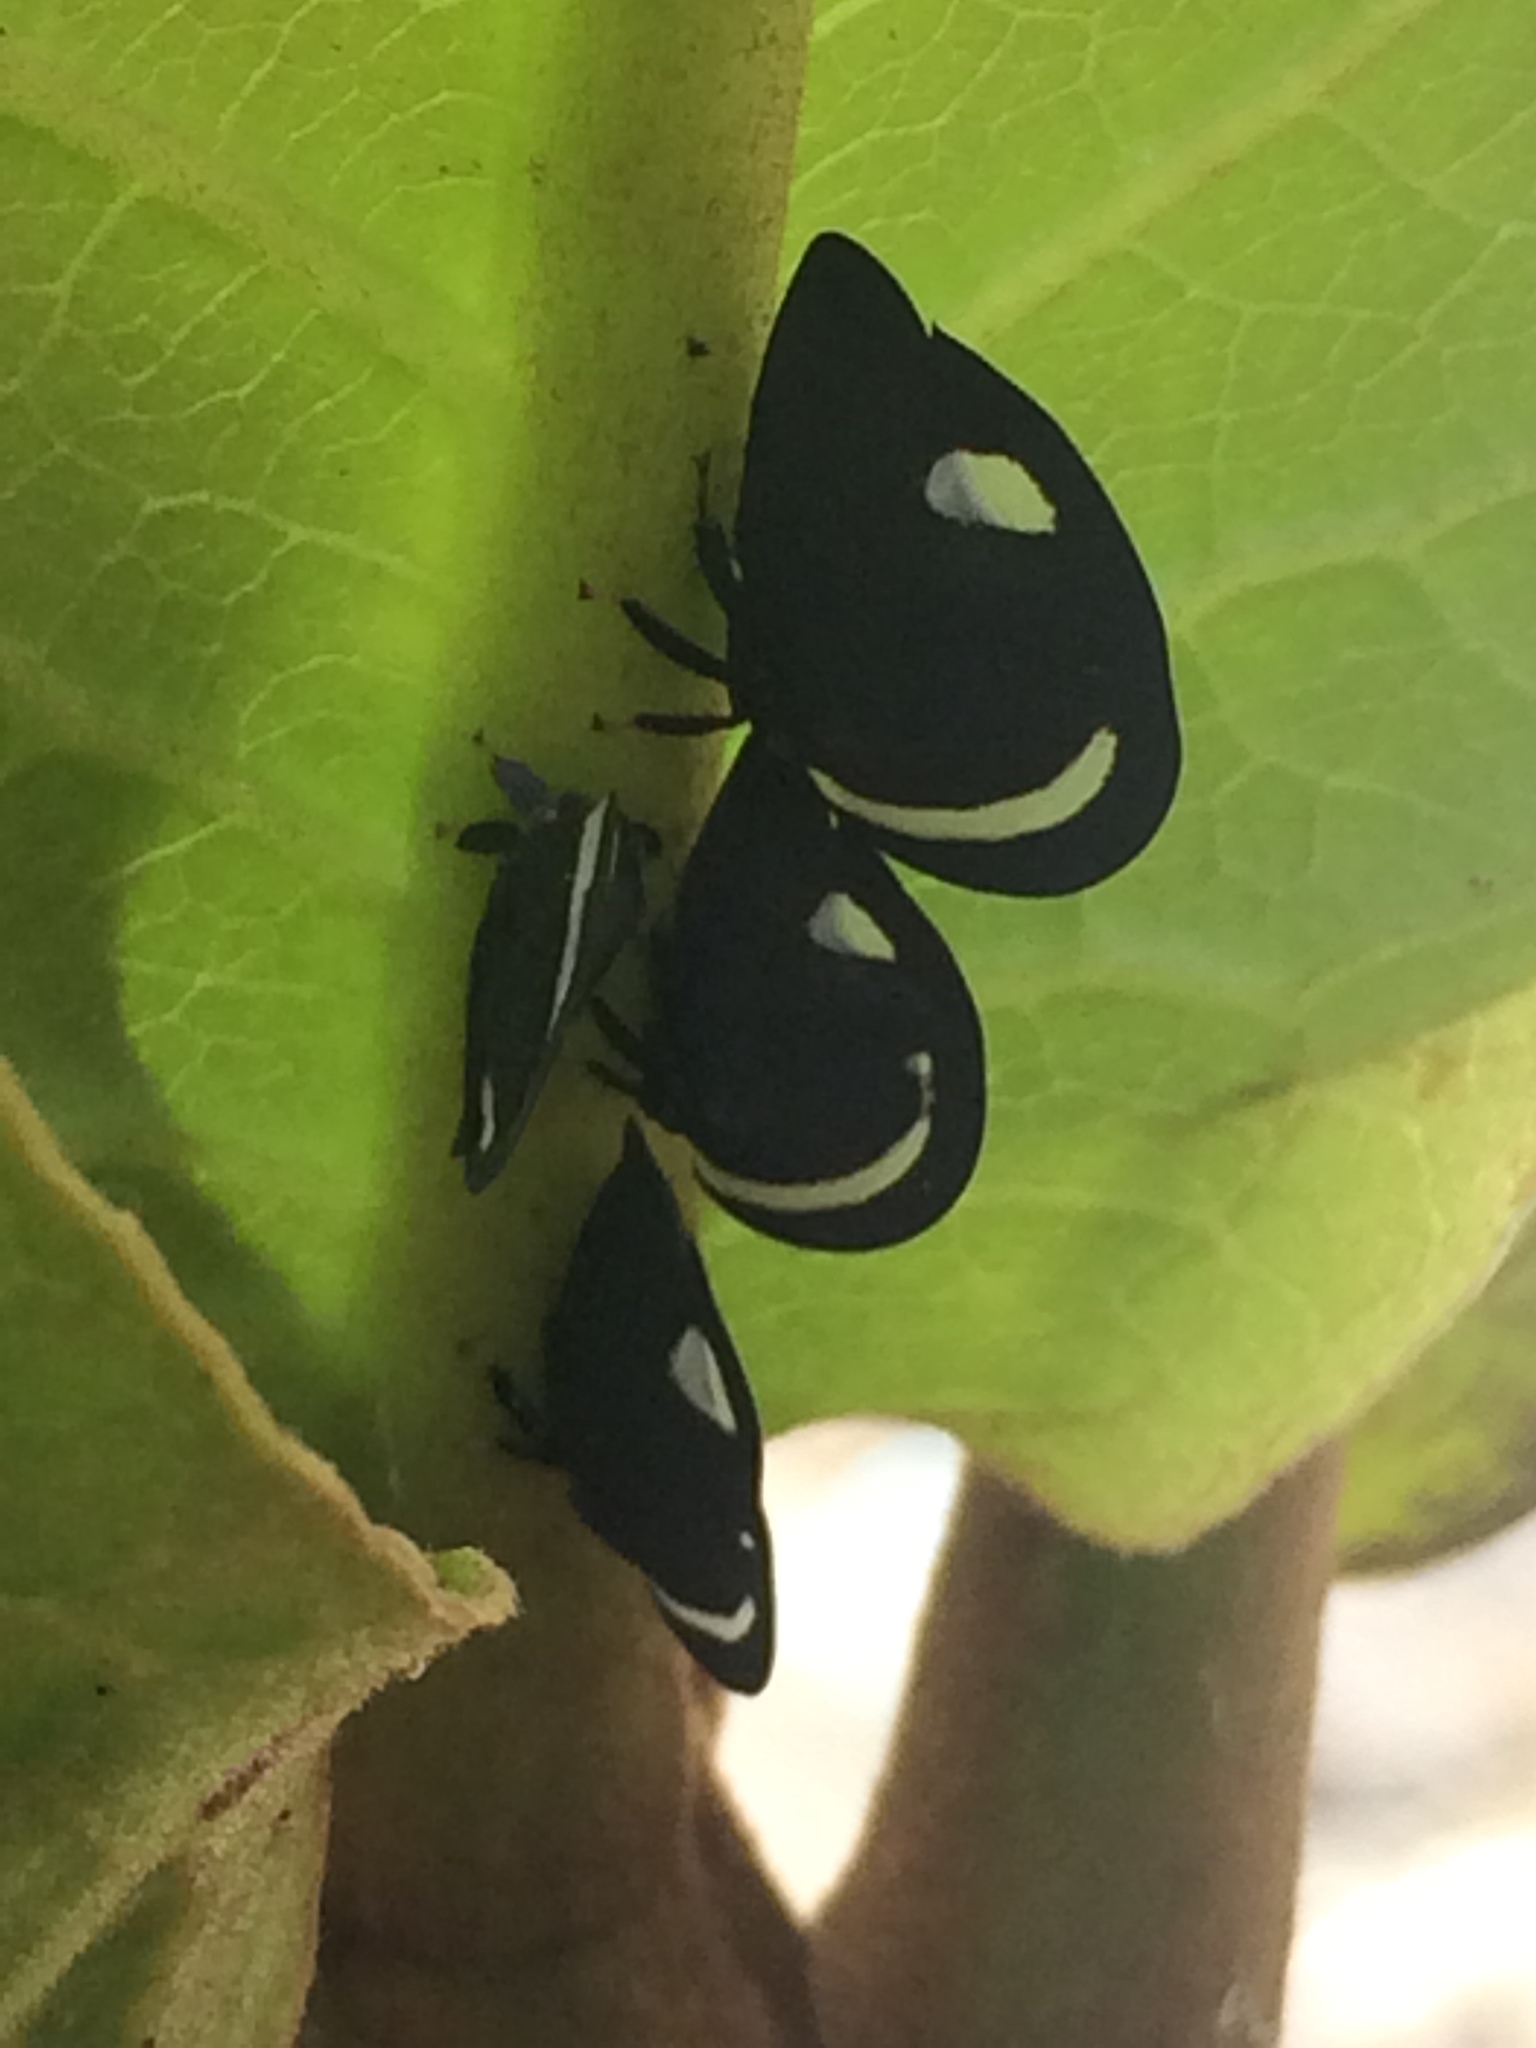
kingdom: Animalia
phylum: Arthropoda
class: Insecta
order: Hemiptera
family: Membracidae
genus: Membracis
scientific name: Membracis
